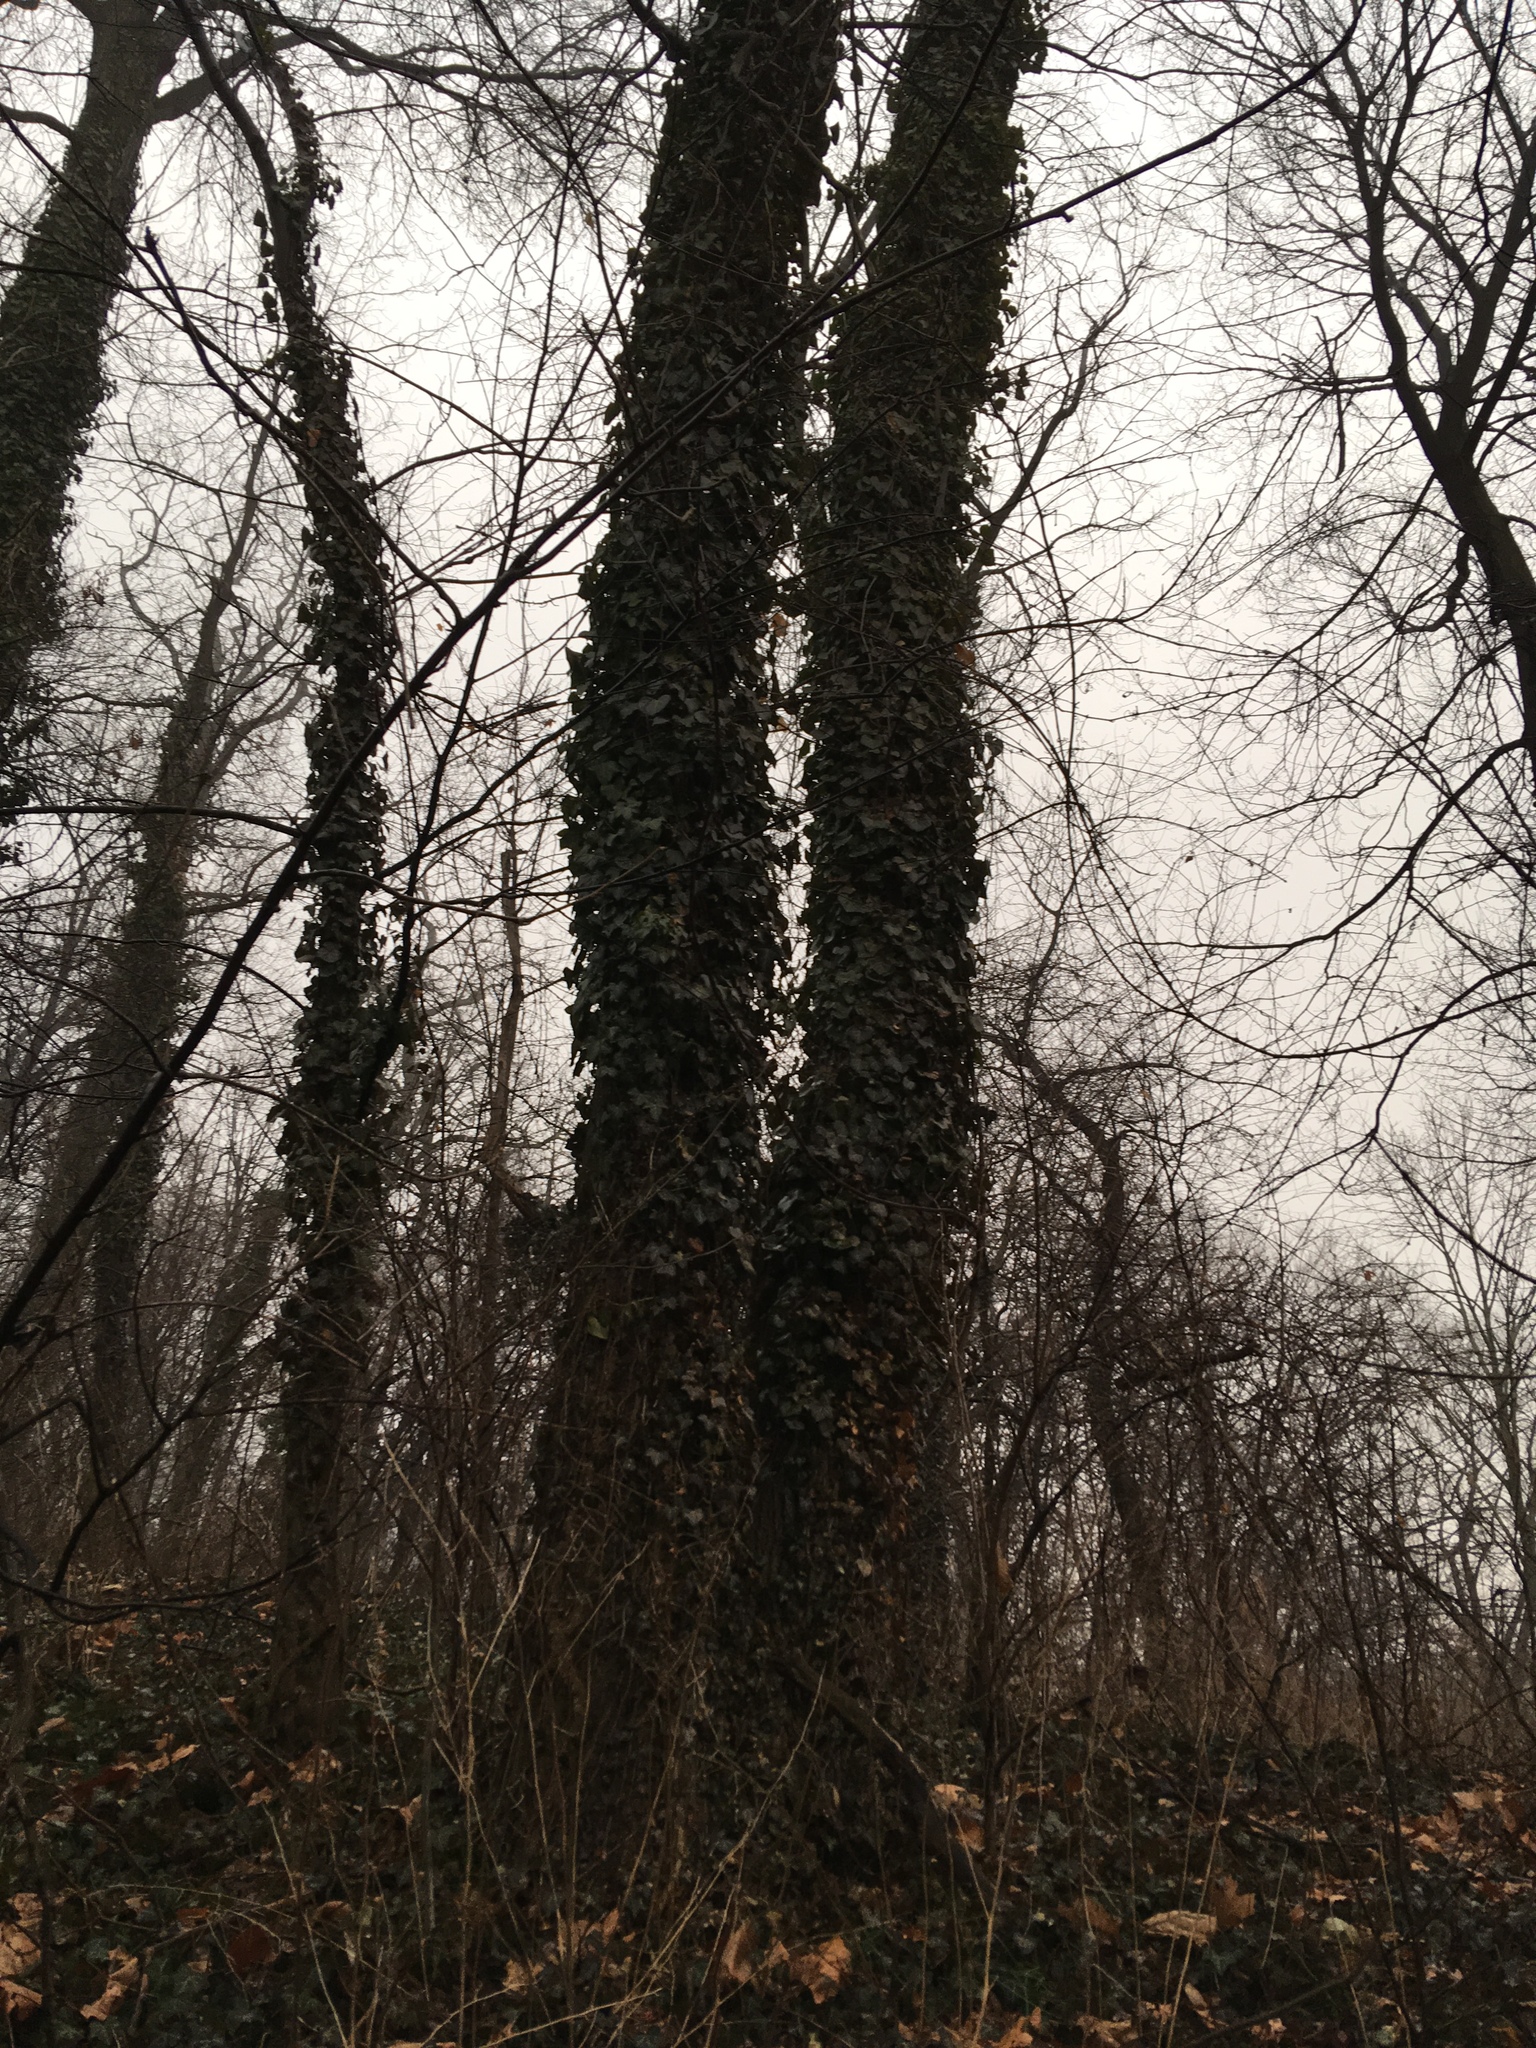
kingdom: Plantae
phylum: Tracheophyta
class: Magnoliopsida
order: Apiales
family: Araliaceae
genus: Hedera
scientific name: Hedera helix
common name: Ivy
